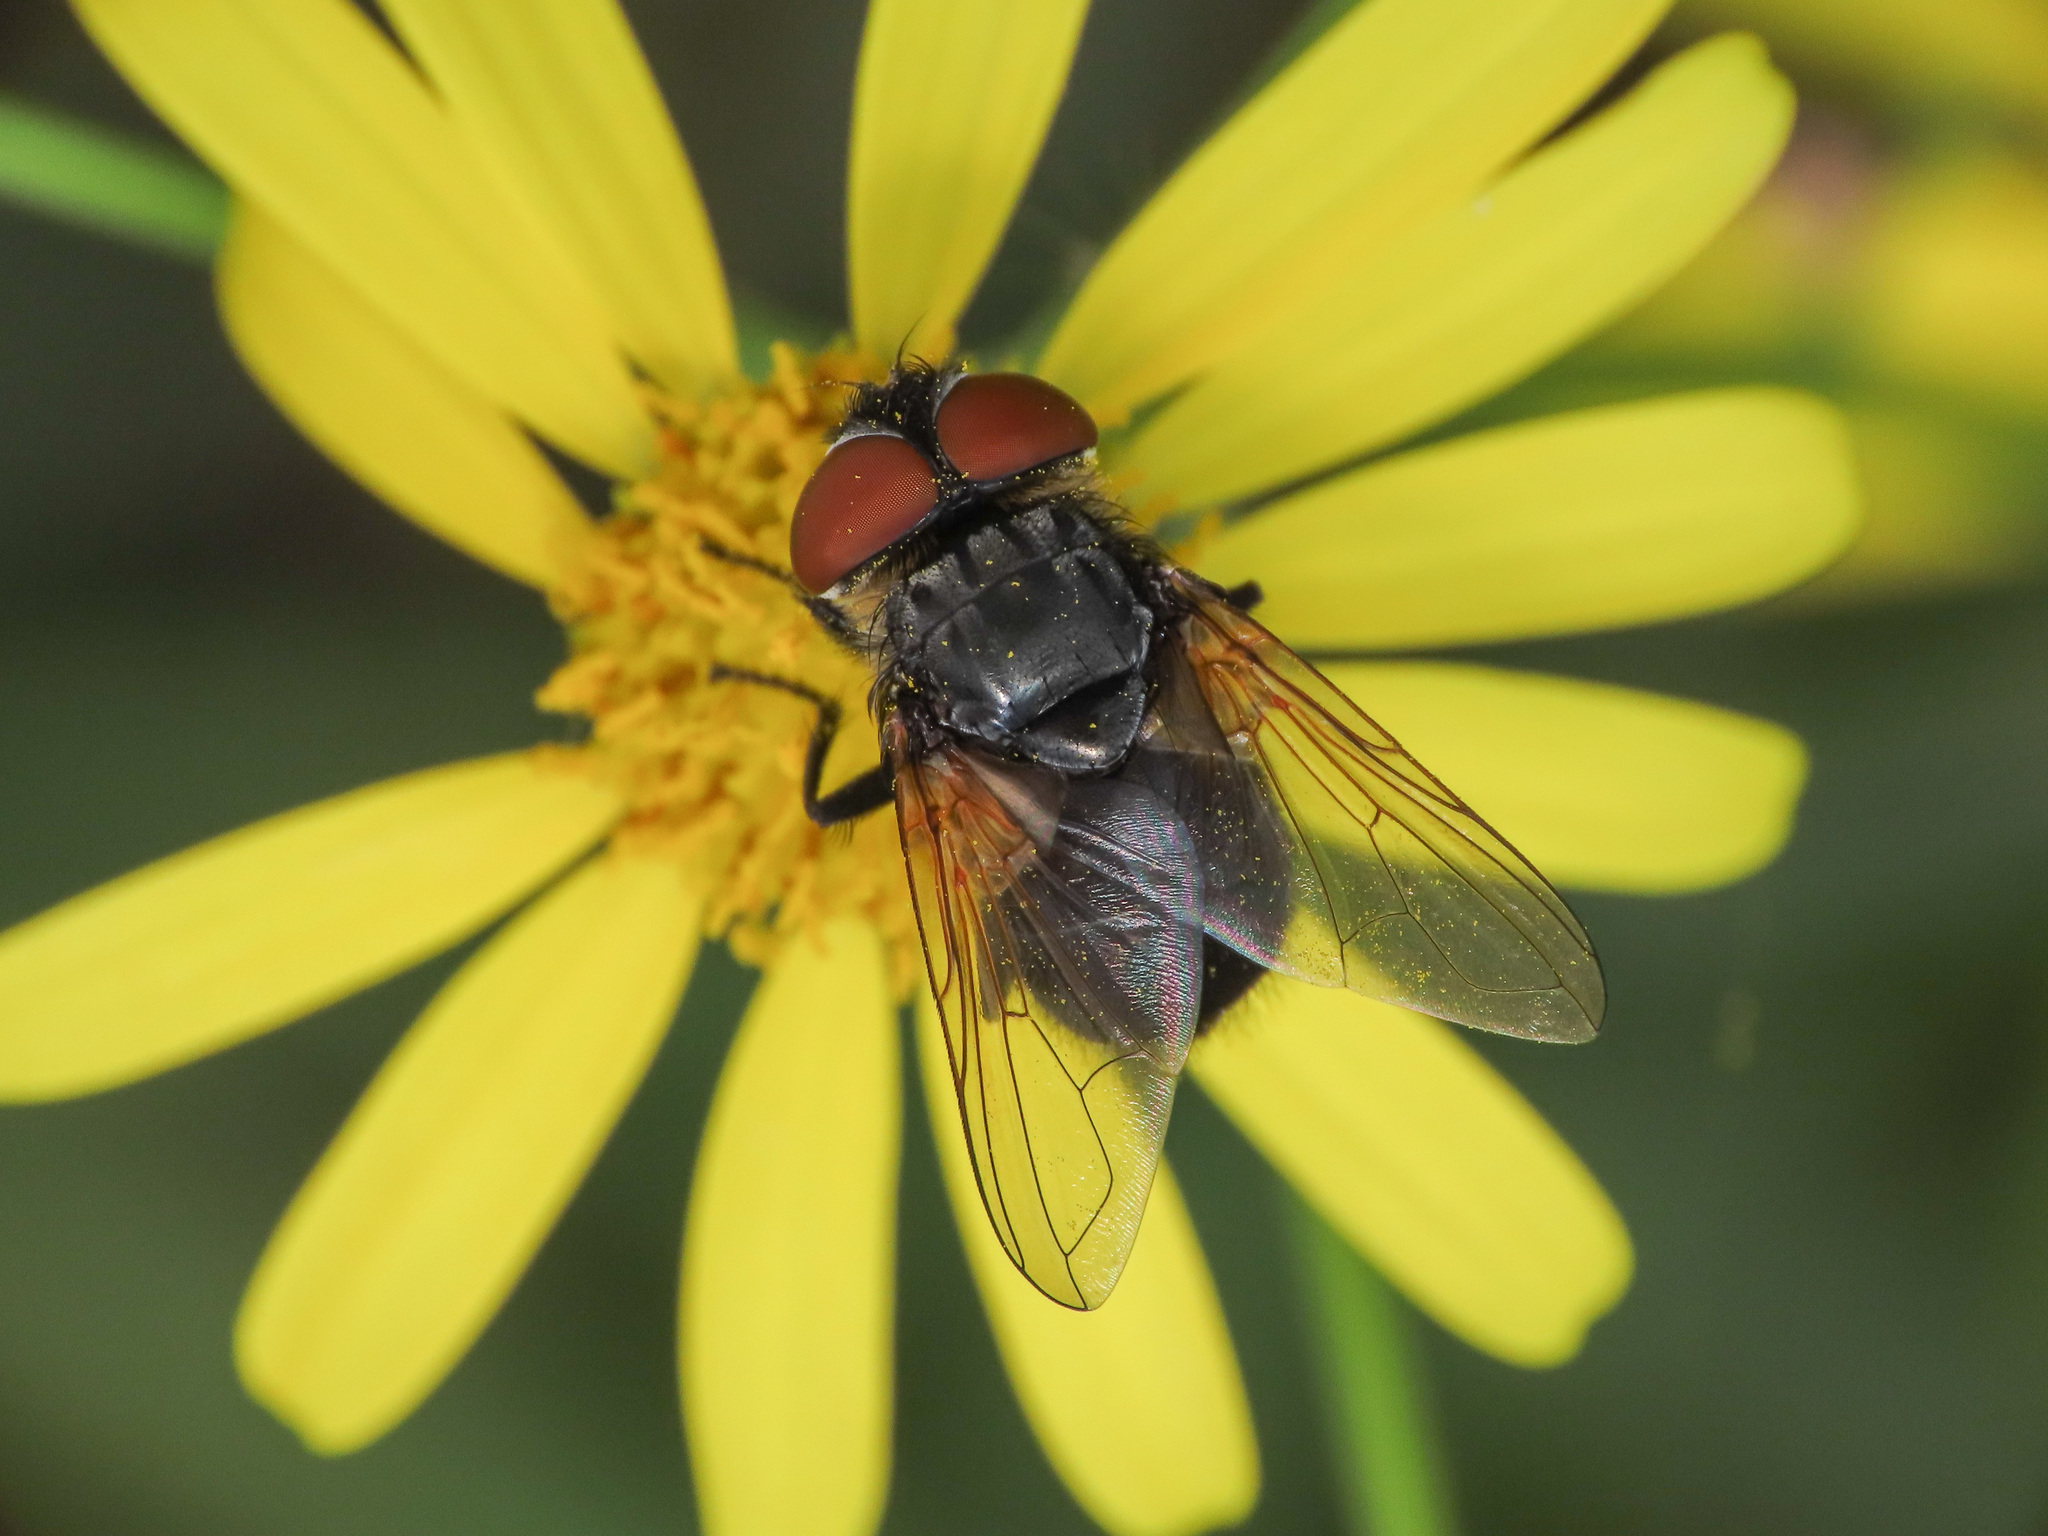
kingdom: Animalia
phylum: Arthropoda
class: Insecta
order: Diptera
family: Tachinidae
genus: Phasia
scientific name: Phasia aurigera
